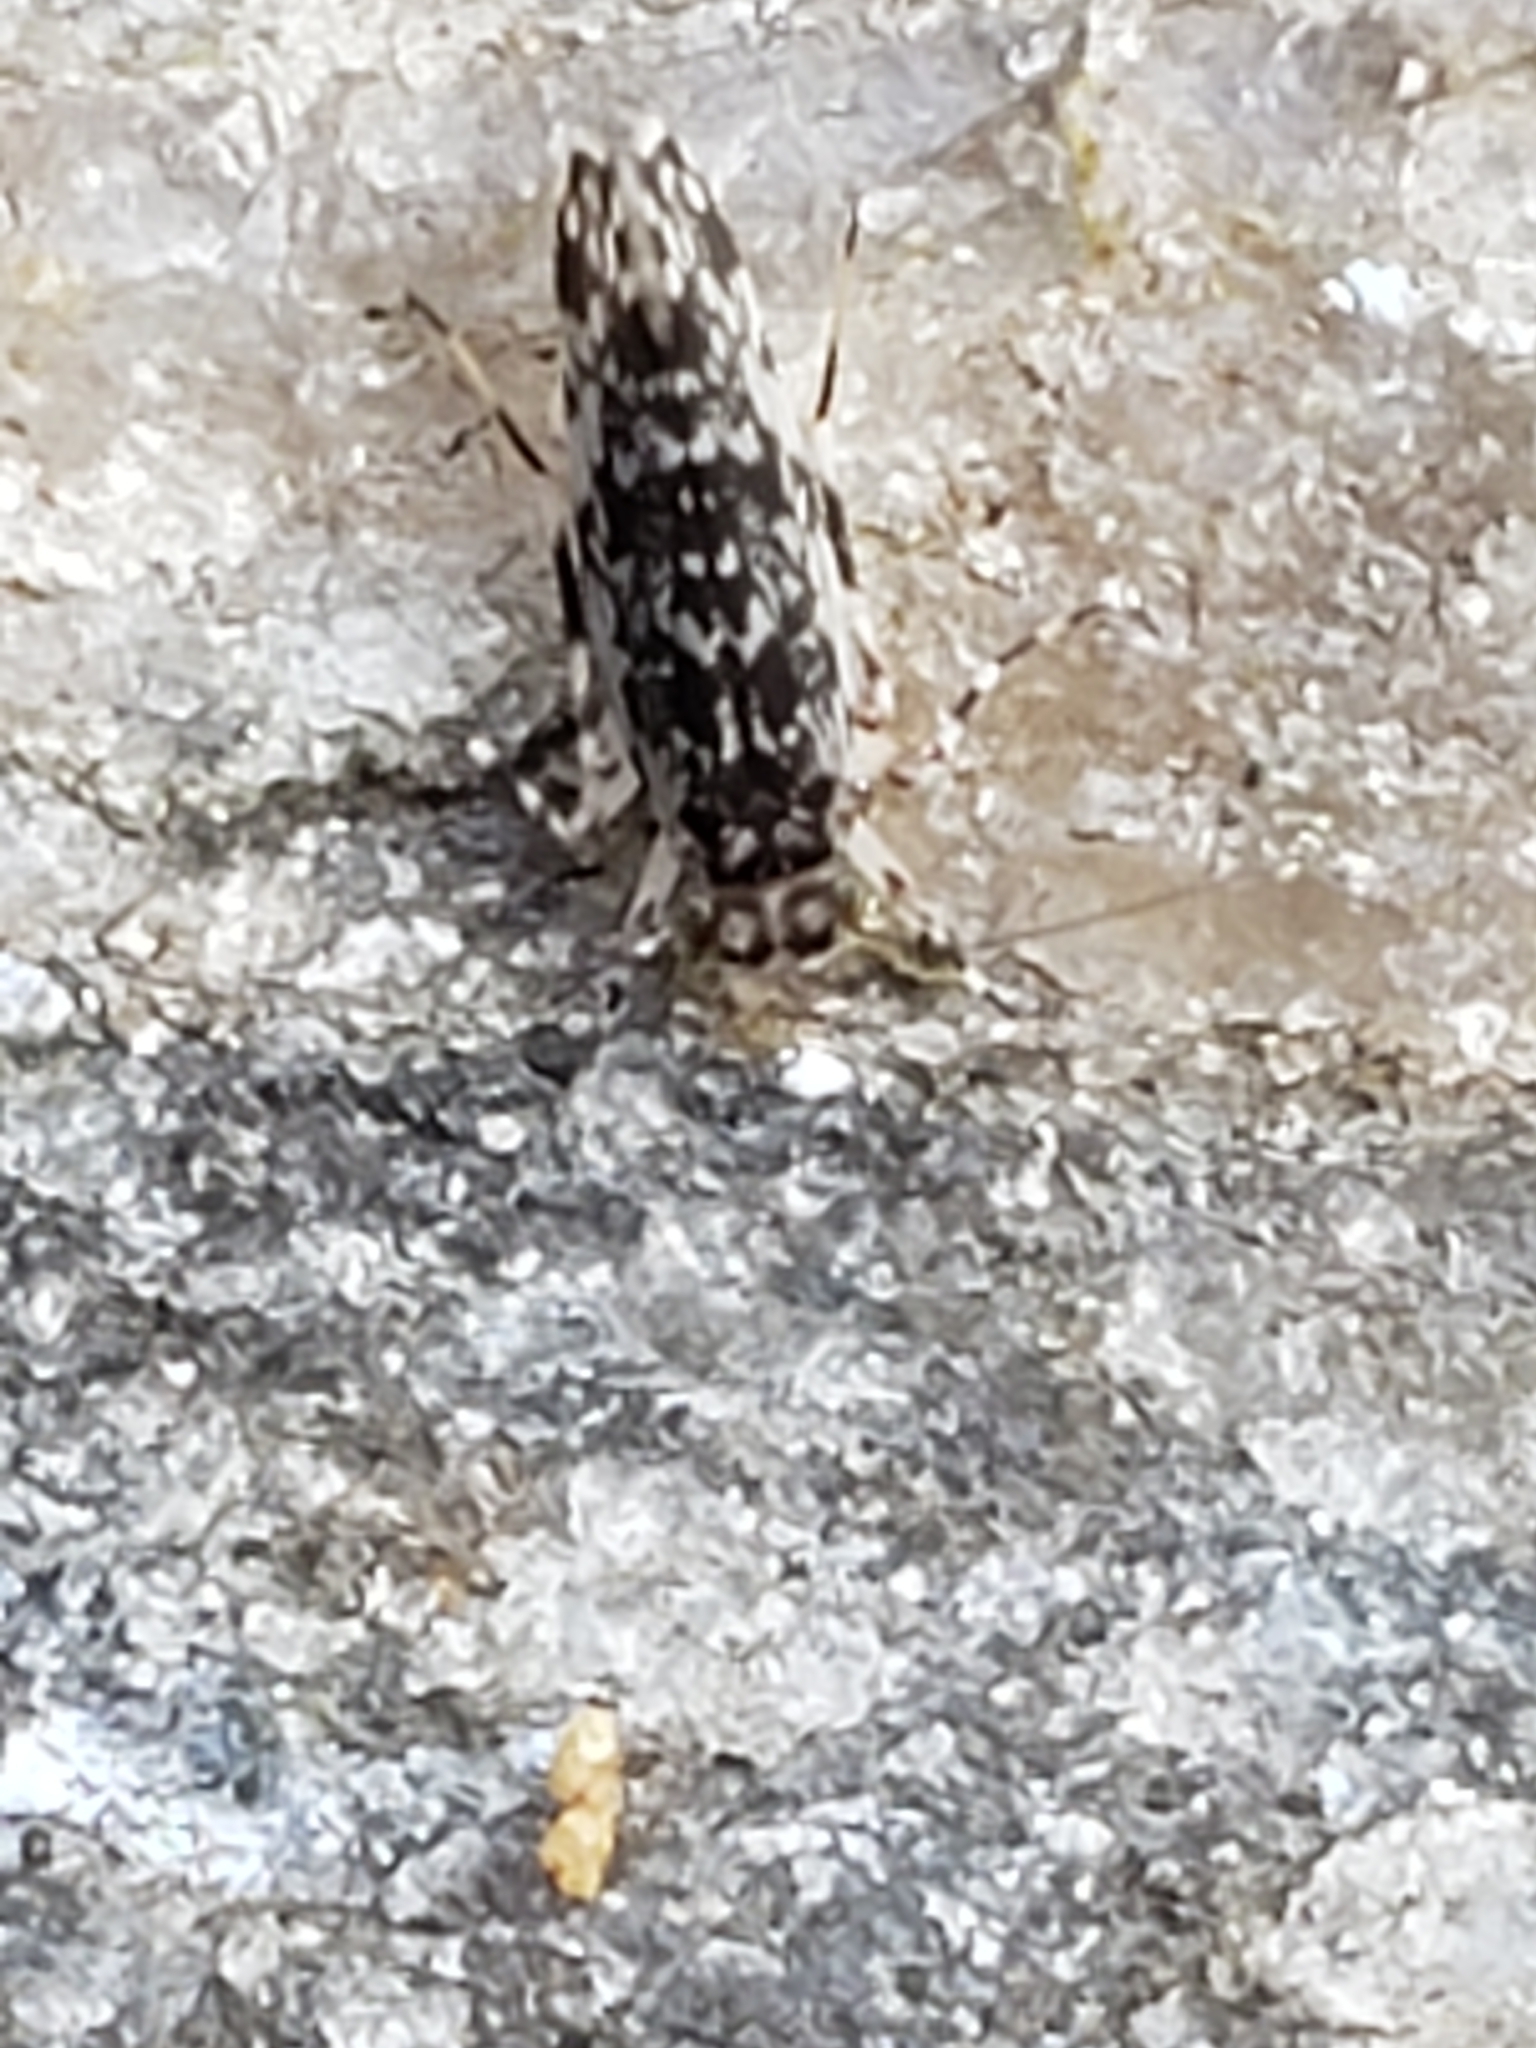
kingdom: Animalia
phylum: Arthropoda
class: Insecta
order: Psocodea
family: Amphientomidae
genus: Stimulopalpus
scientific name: Stimulopalpus japonicus
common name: Tropical bark louse
